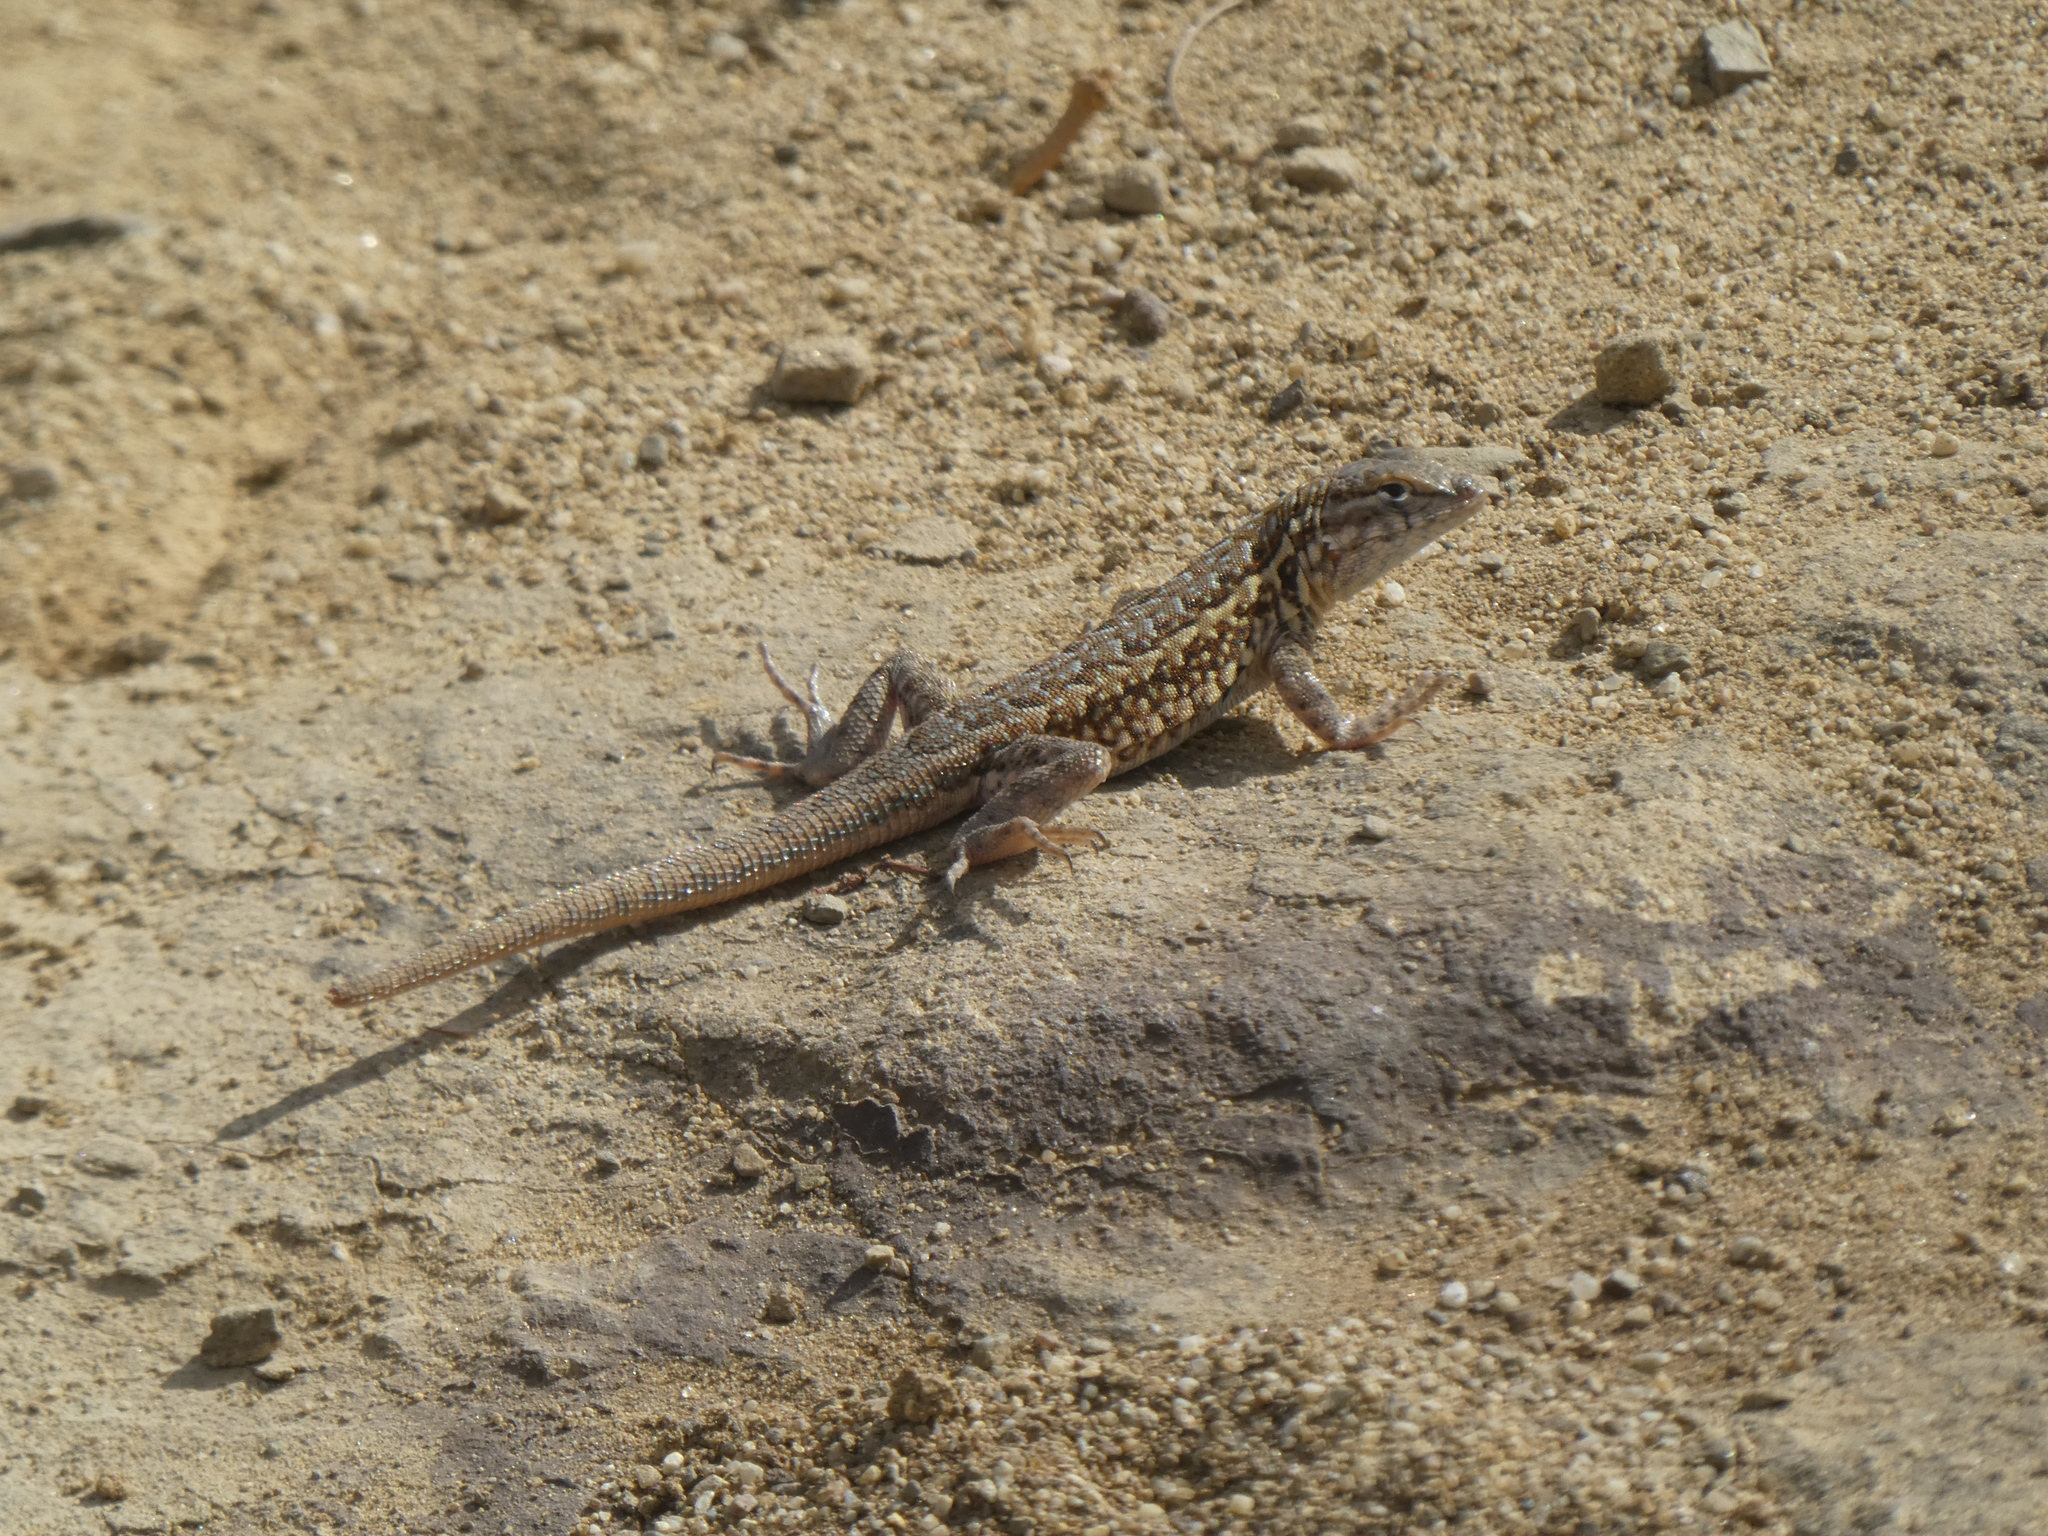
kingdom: Animalia
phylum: Chordata
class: Squamata
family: Phrynosomatidae
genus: Uta
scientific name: Uta stansburiana
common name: Side-blotched lizard
